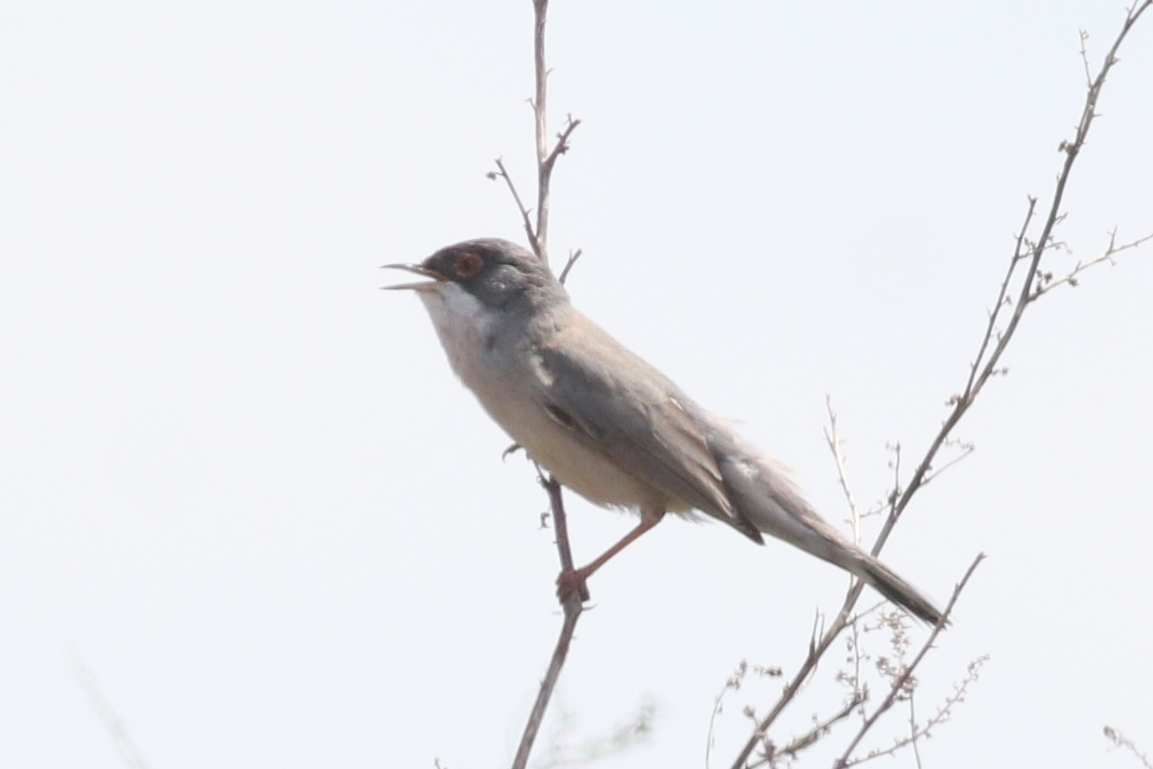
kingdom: Animalia
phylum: Chordata
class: Aves
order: Passeriformes
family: Sylviidae
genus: Sylvia
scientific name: Sylvia mystacea
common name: Menetries's warbler
